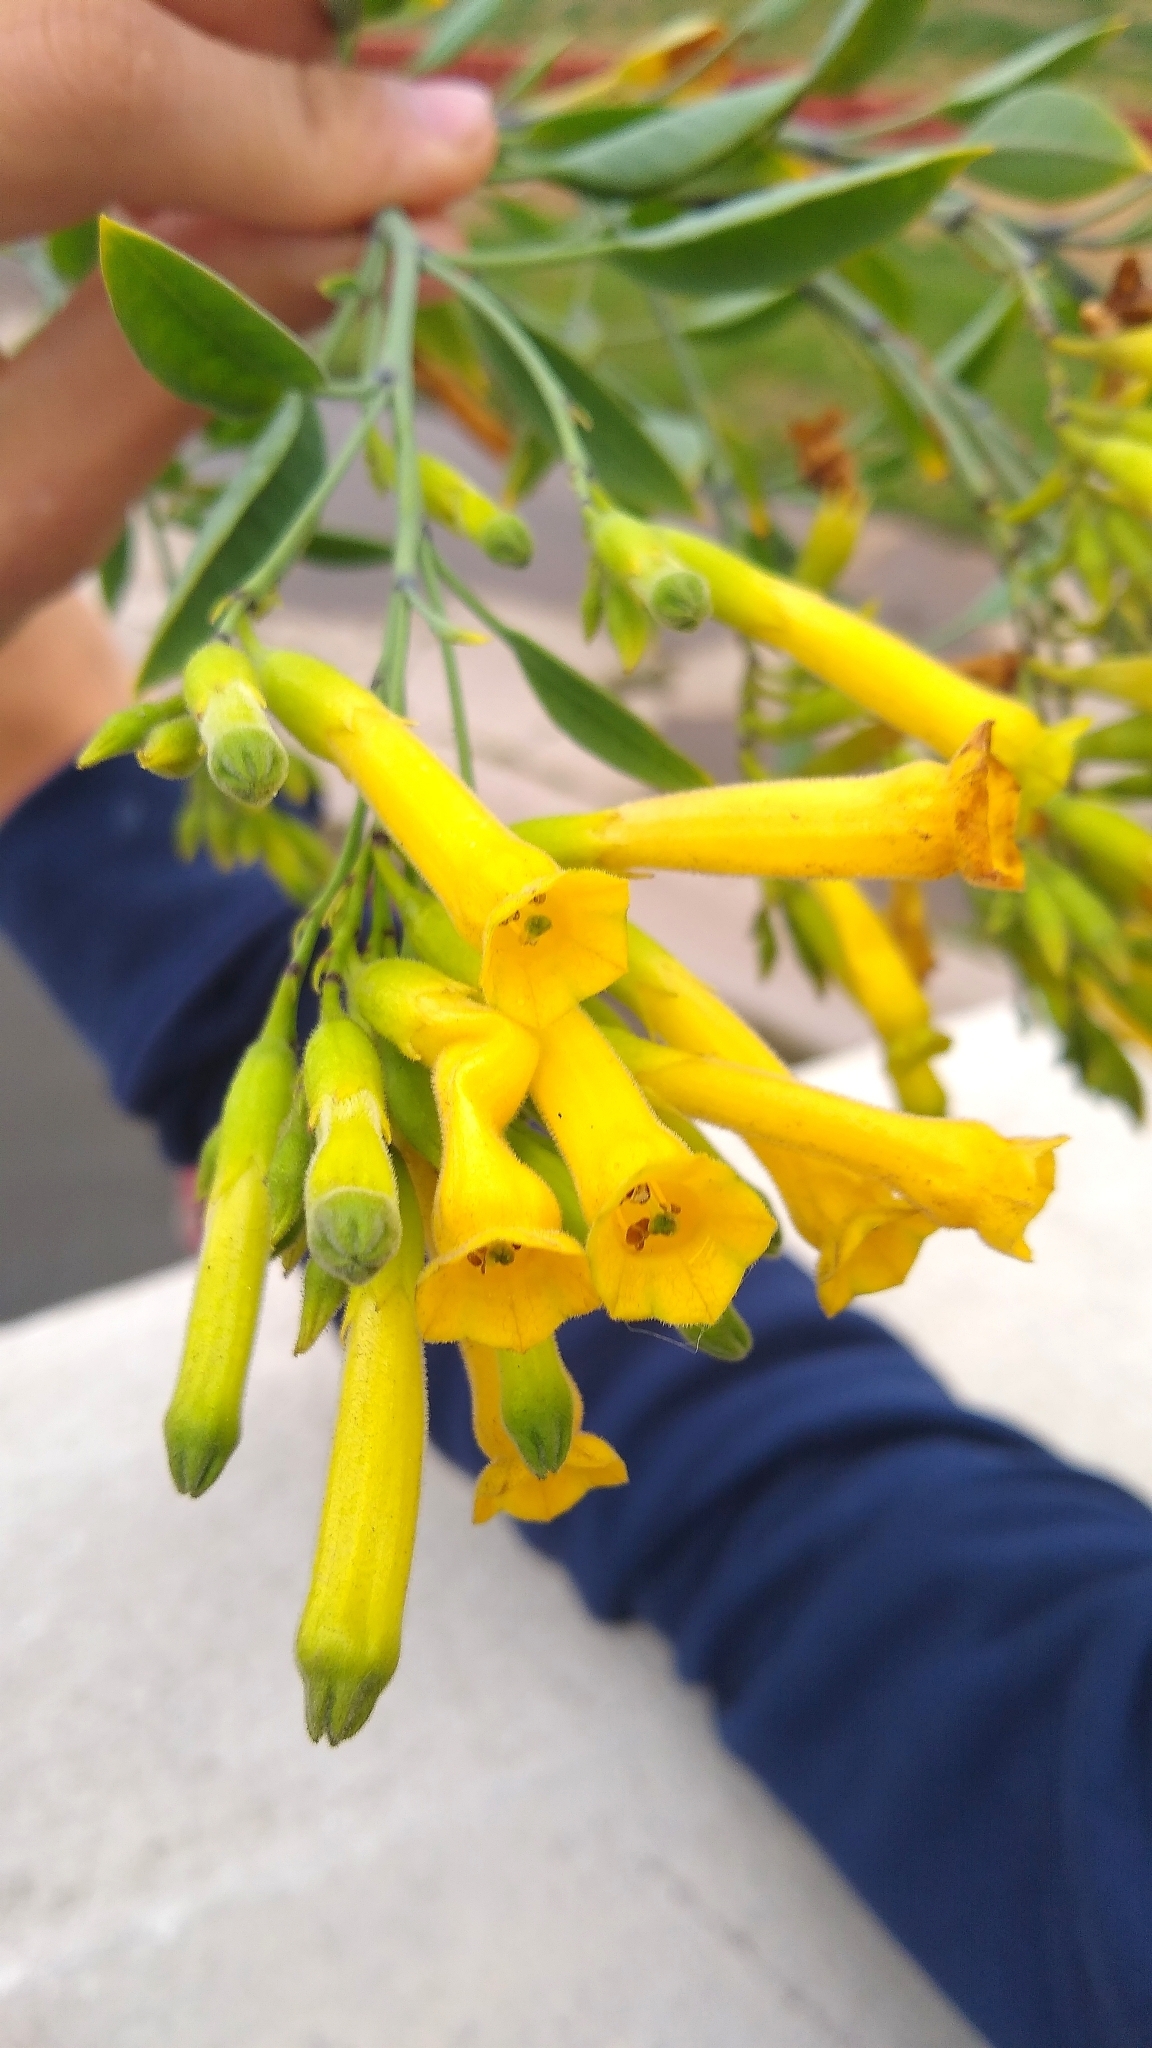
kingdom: Plantae
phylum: Tracheophyta
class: Magnoliopsida
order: Solanales
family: Solanaceae
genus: Nicotiana
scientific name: Nicotiana glauca
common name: Tree tobacco
